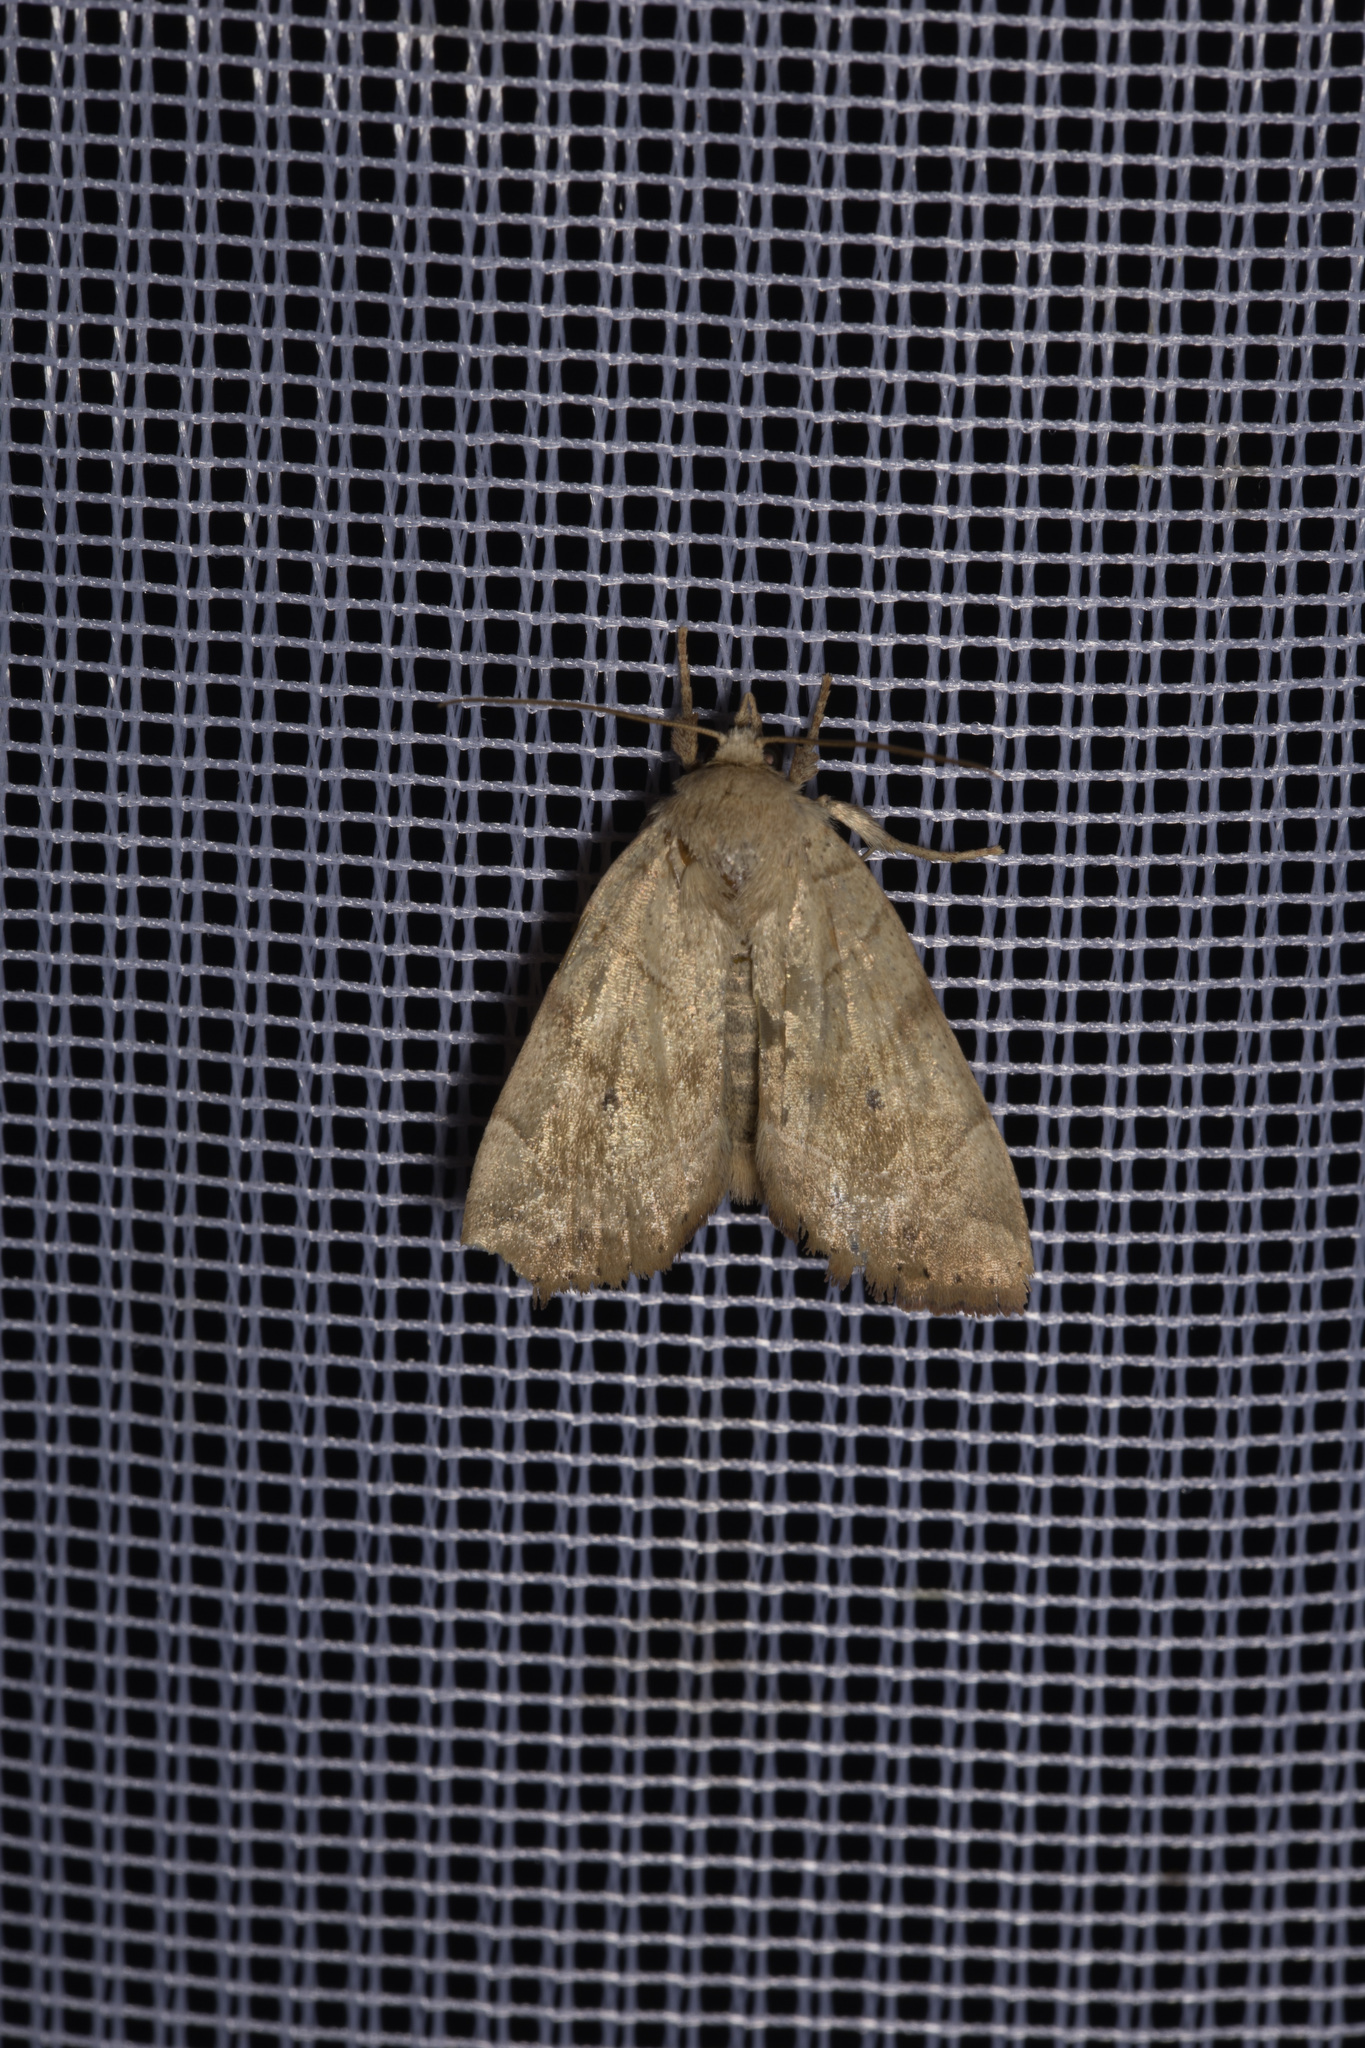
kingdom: Animalia
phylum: Arthropoda
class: Insecta
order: Lepidoptera
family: Noctuidae
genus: Cosmia
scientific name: Cosmia trapezina
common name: Dun-bar
